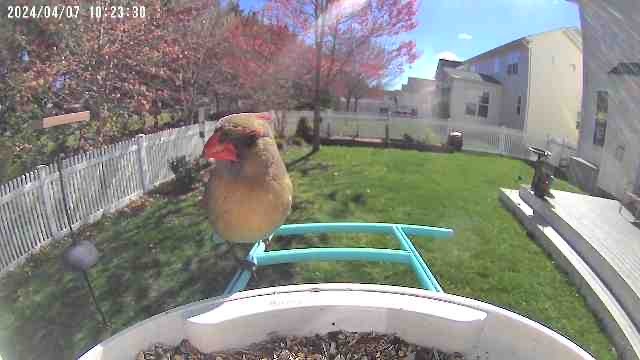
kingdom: Animalia
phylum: Chordata
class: Aves
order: Passeriformes
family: Cardinalidae
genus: Cardinalis
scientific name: Cardinalis cardinalis
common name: Northern cardinal
